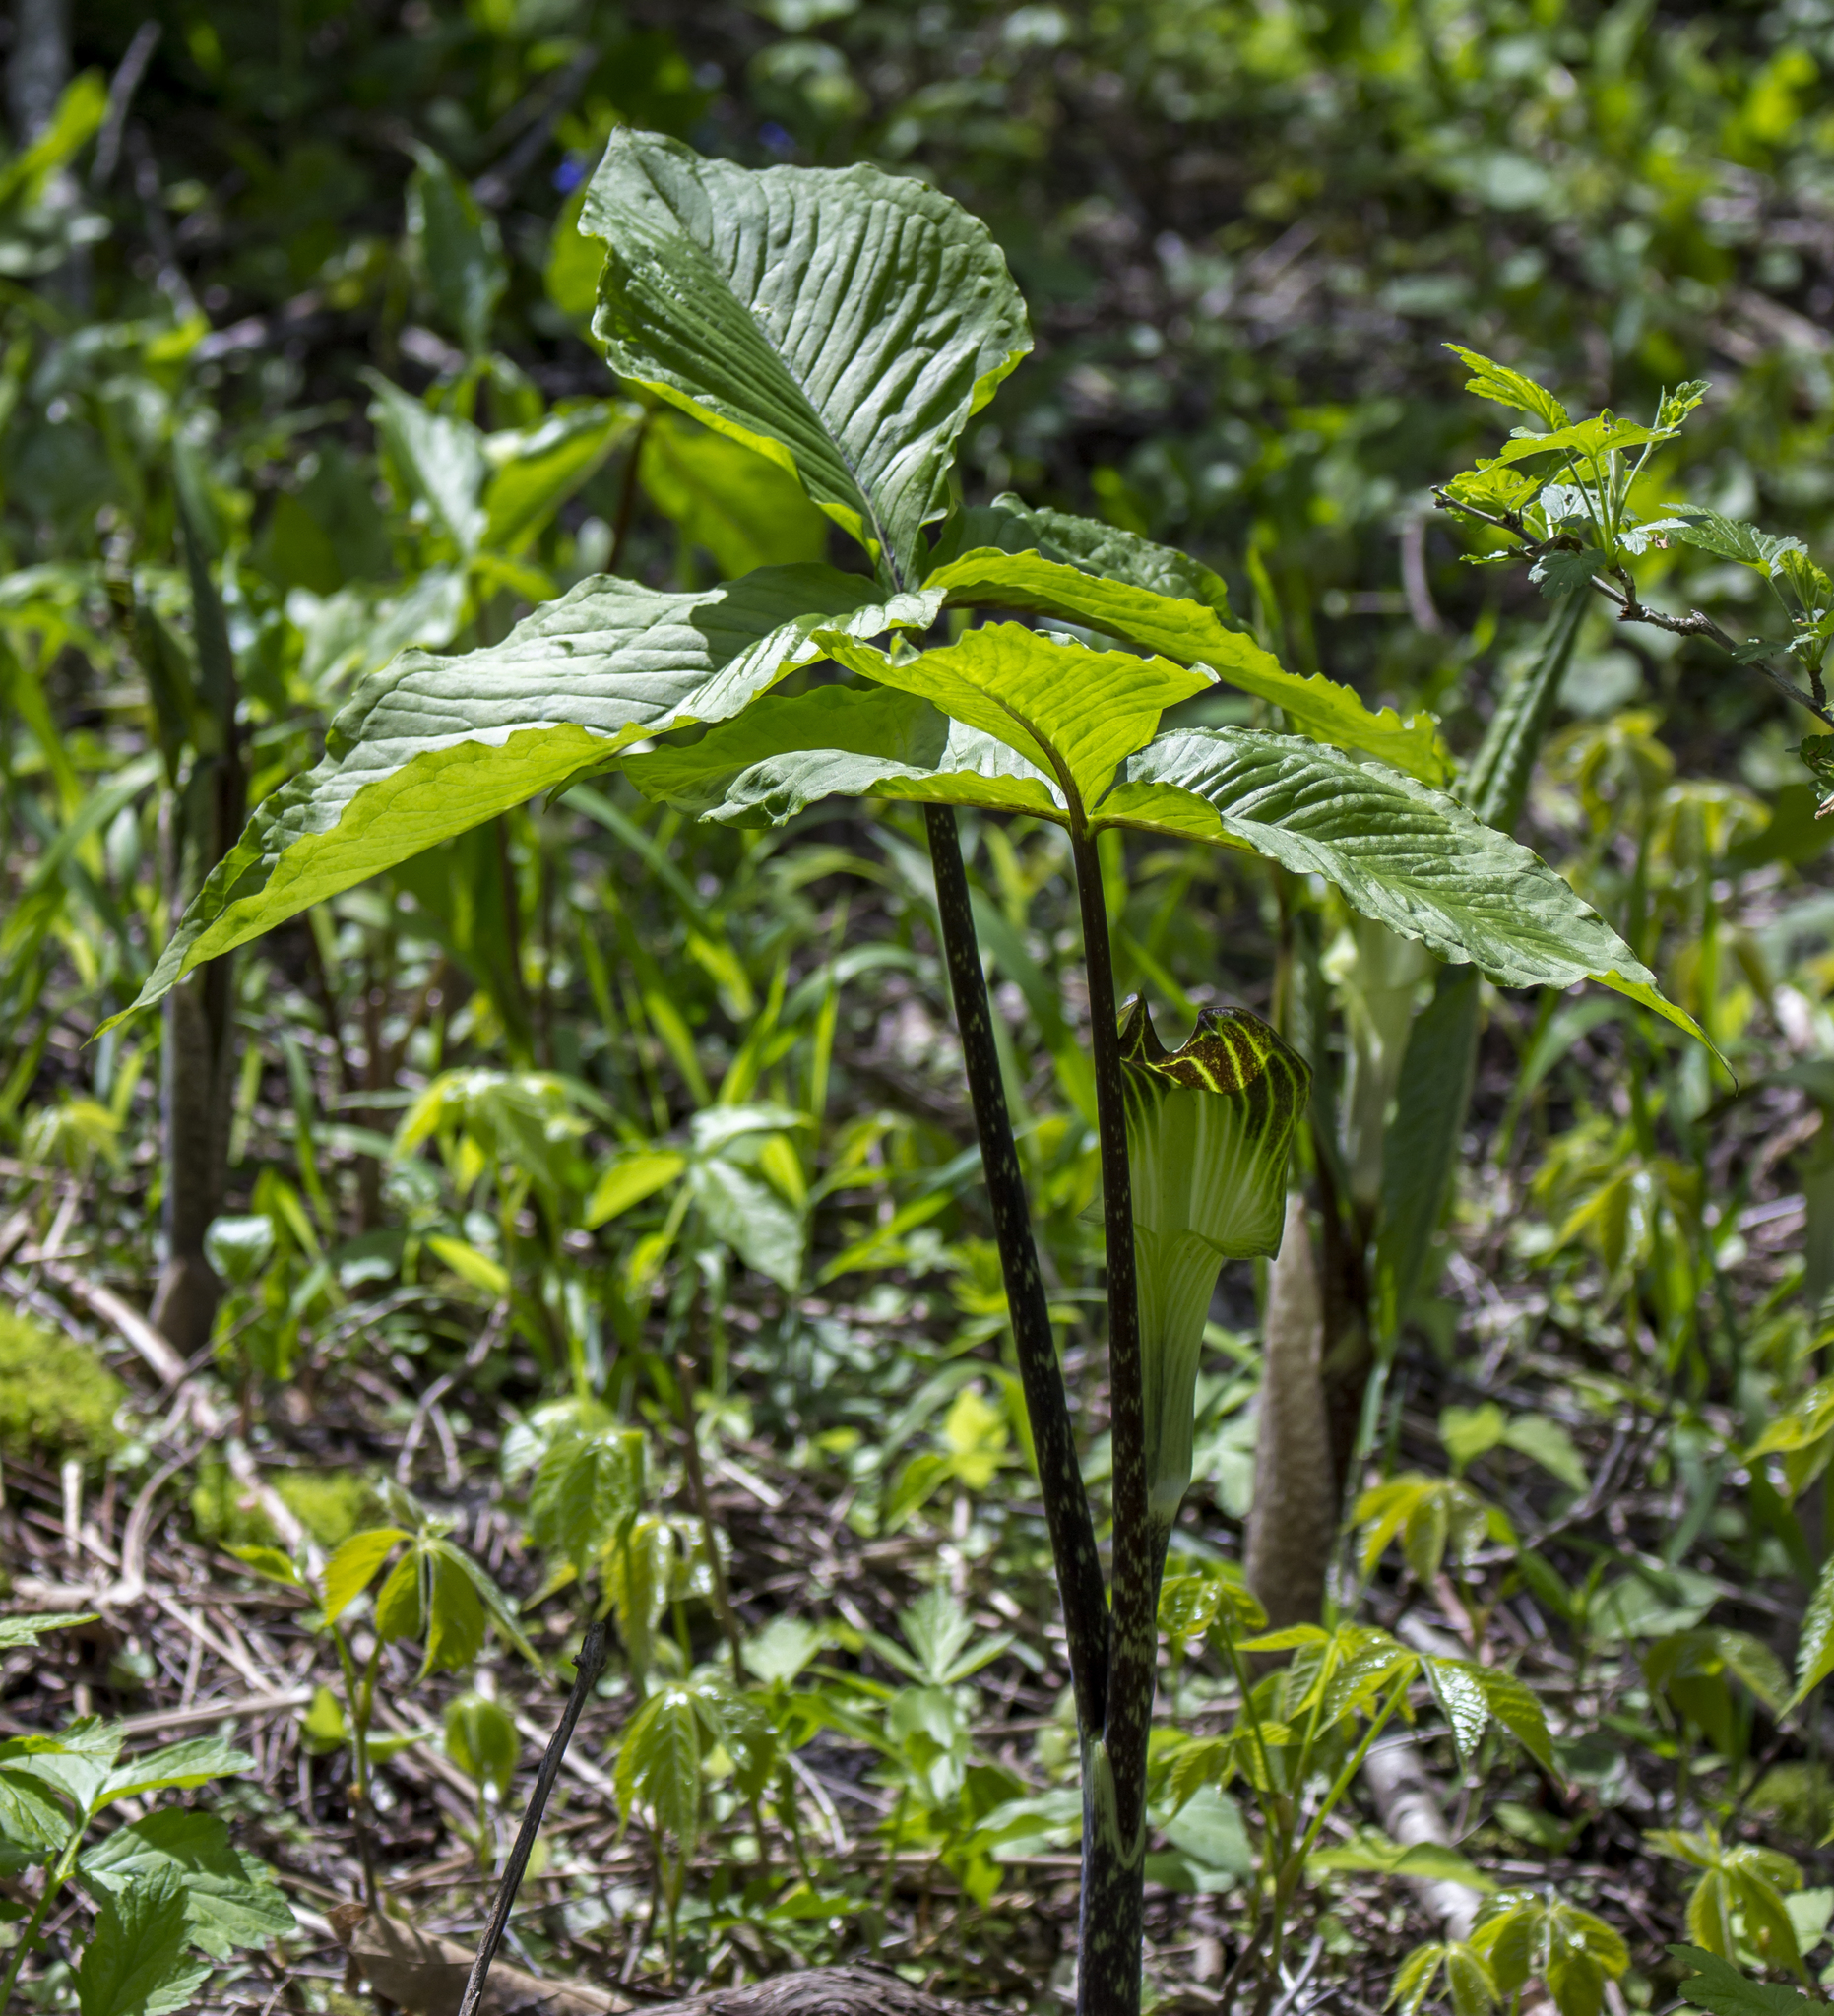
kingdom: Plantae
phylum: Tracheophyta
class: Liliopsida
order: Alismatales
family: Araceae
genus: Arisaema
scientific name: Arisaema triphyllum
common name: Jack-in-the-pulpit
